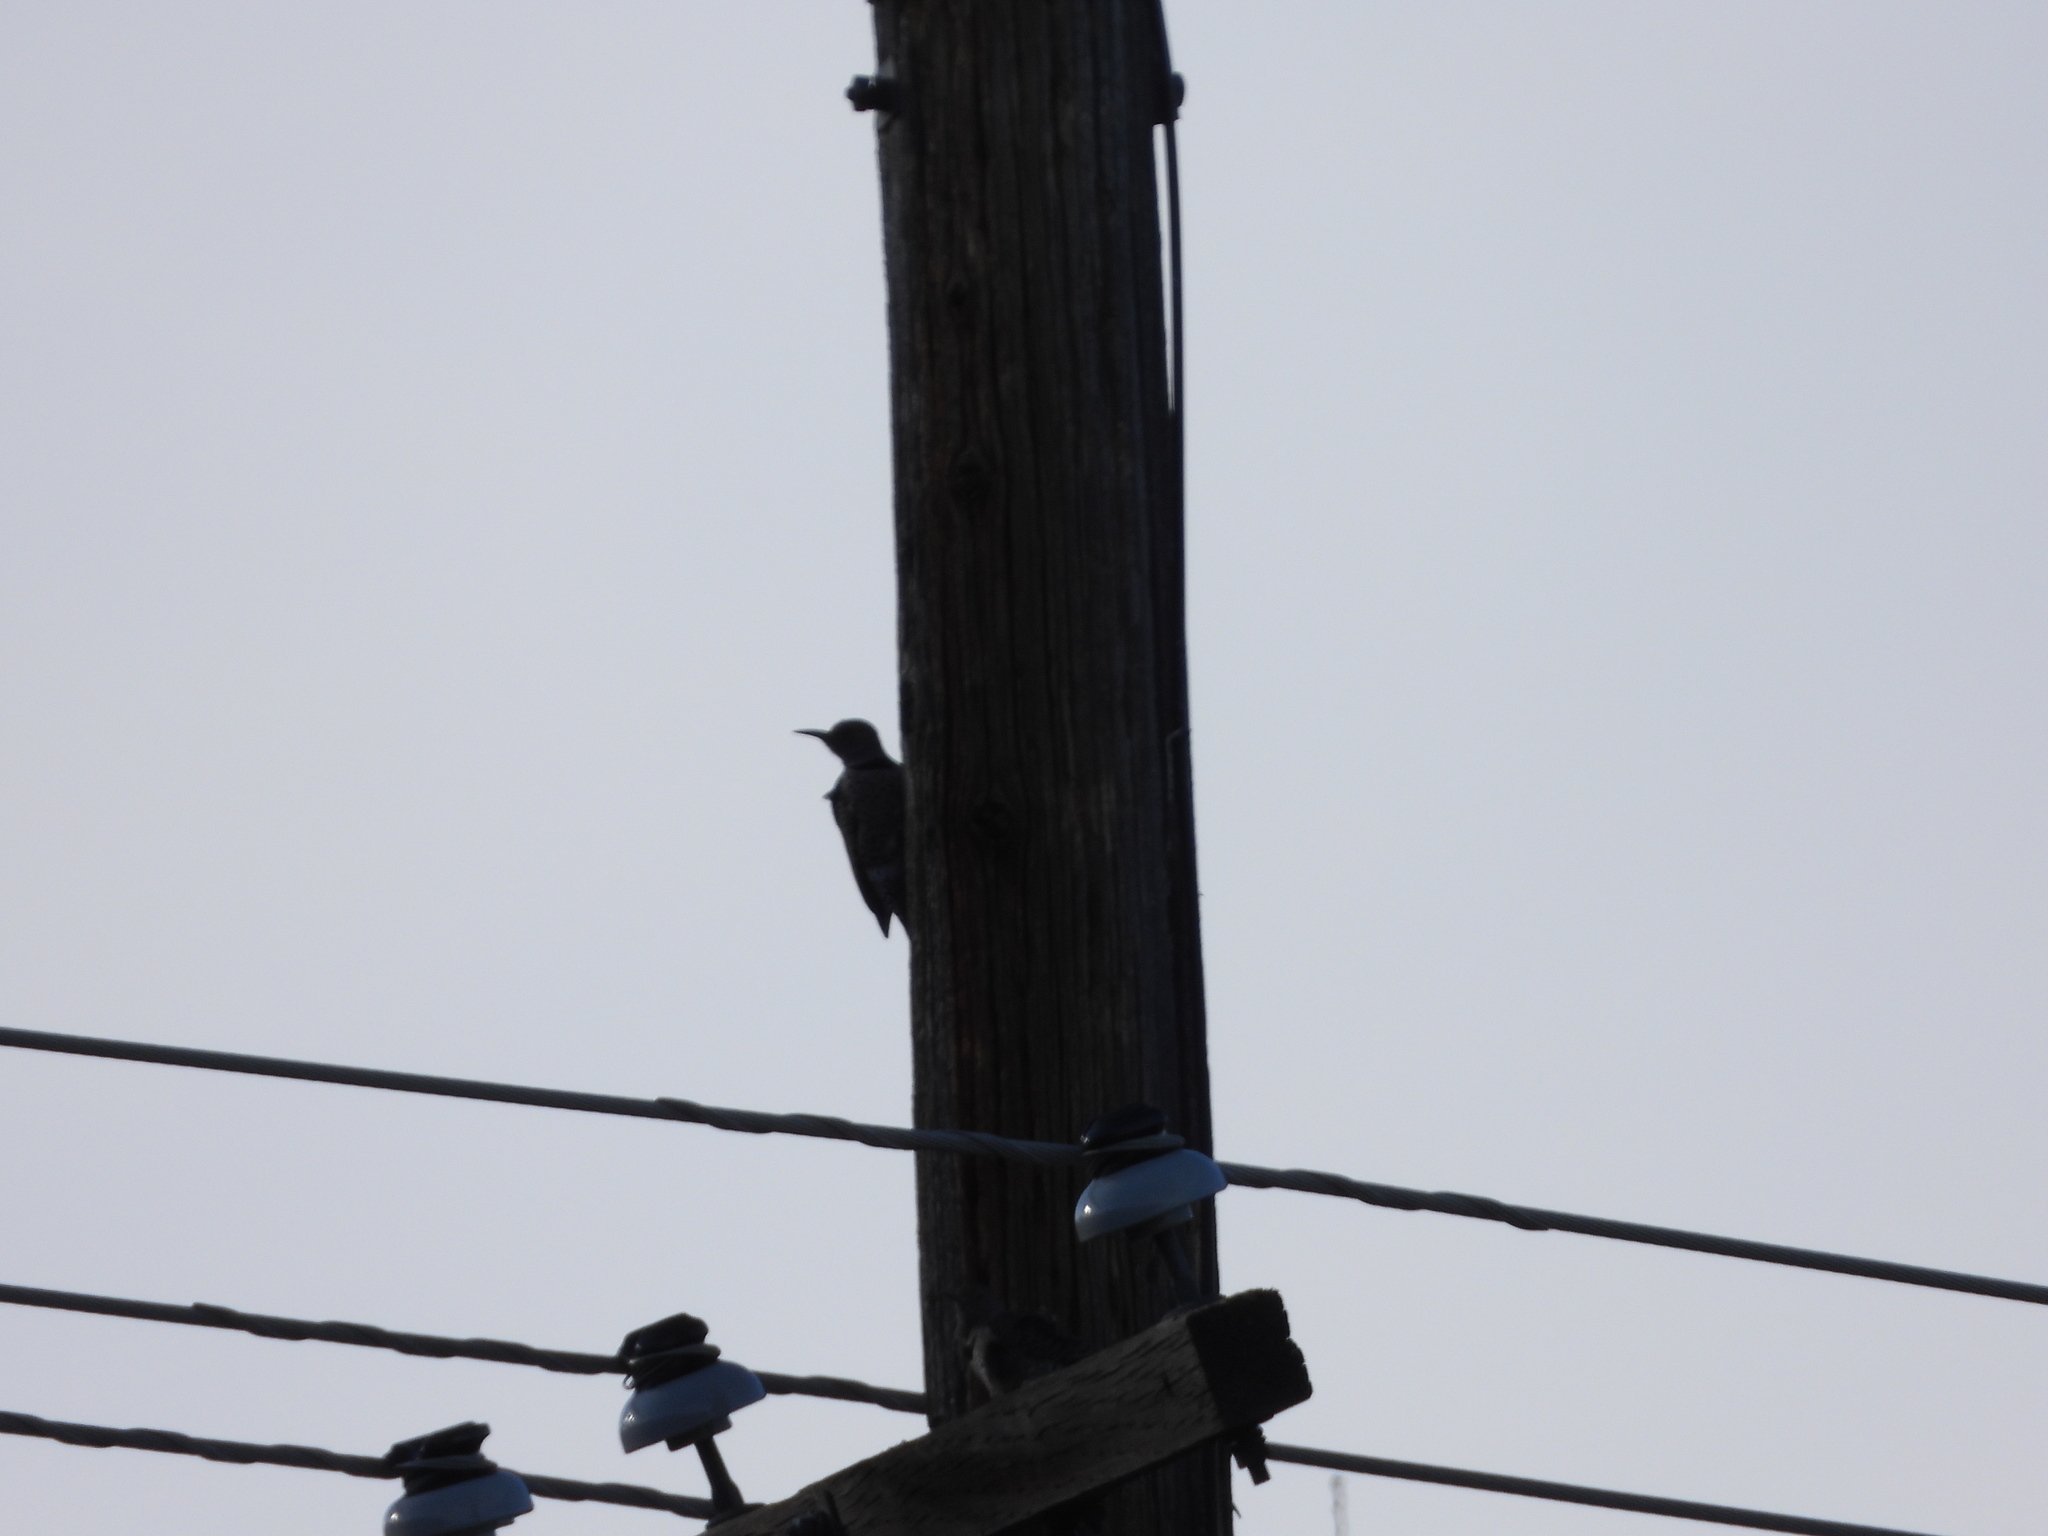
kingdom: Animalia
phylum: Chordata
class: Aves
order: Piciformes
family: Picidae
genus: Colaptes
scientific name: Colaptes auratus
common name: Northern flicker
